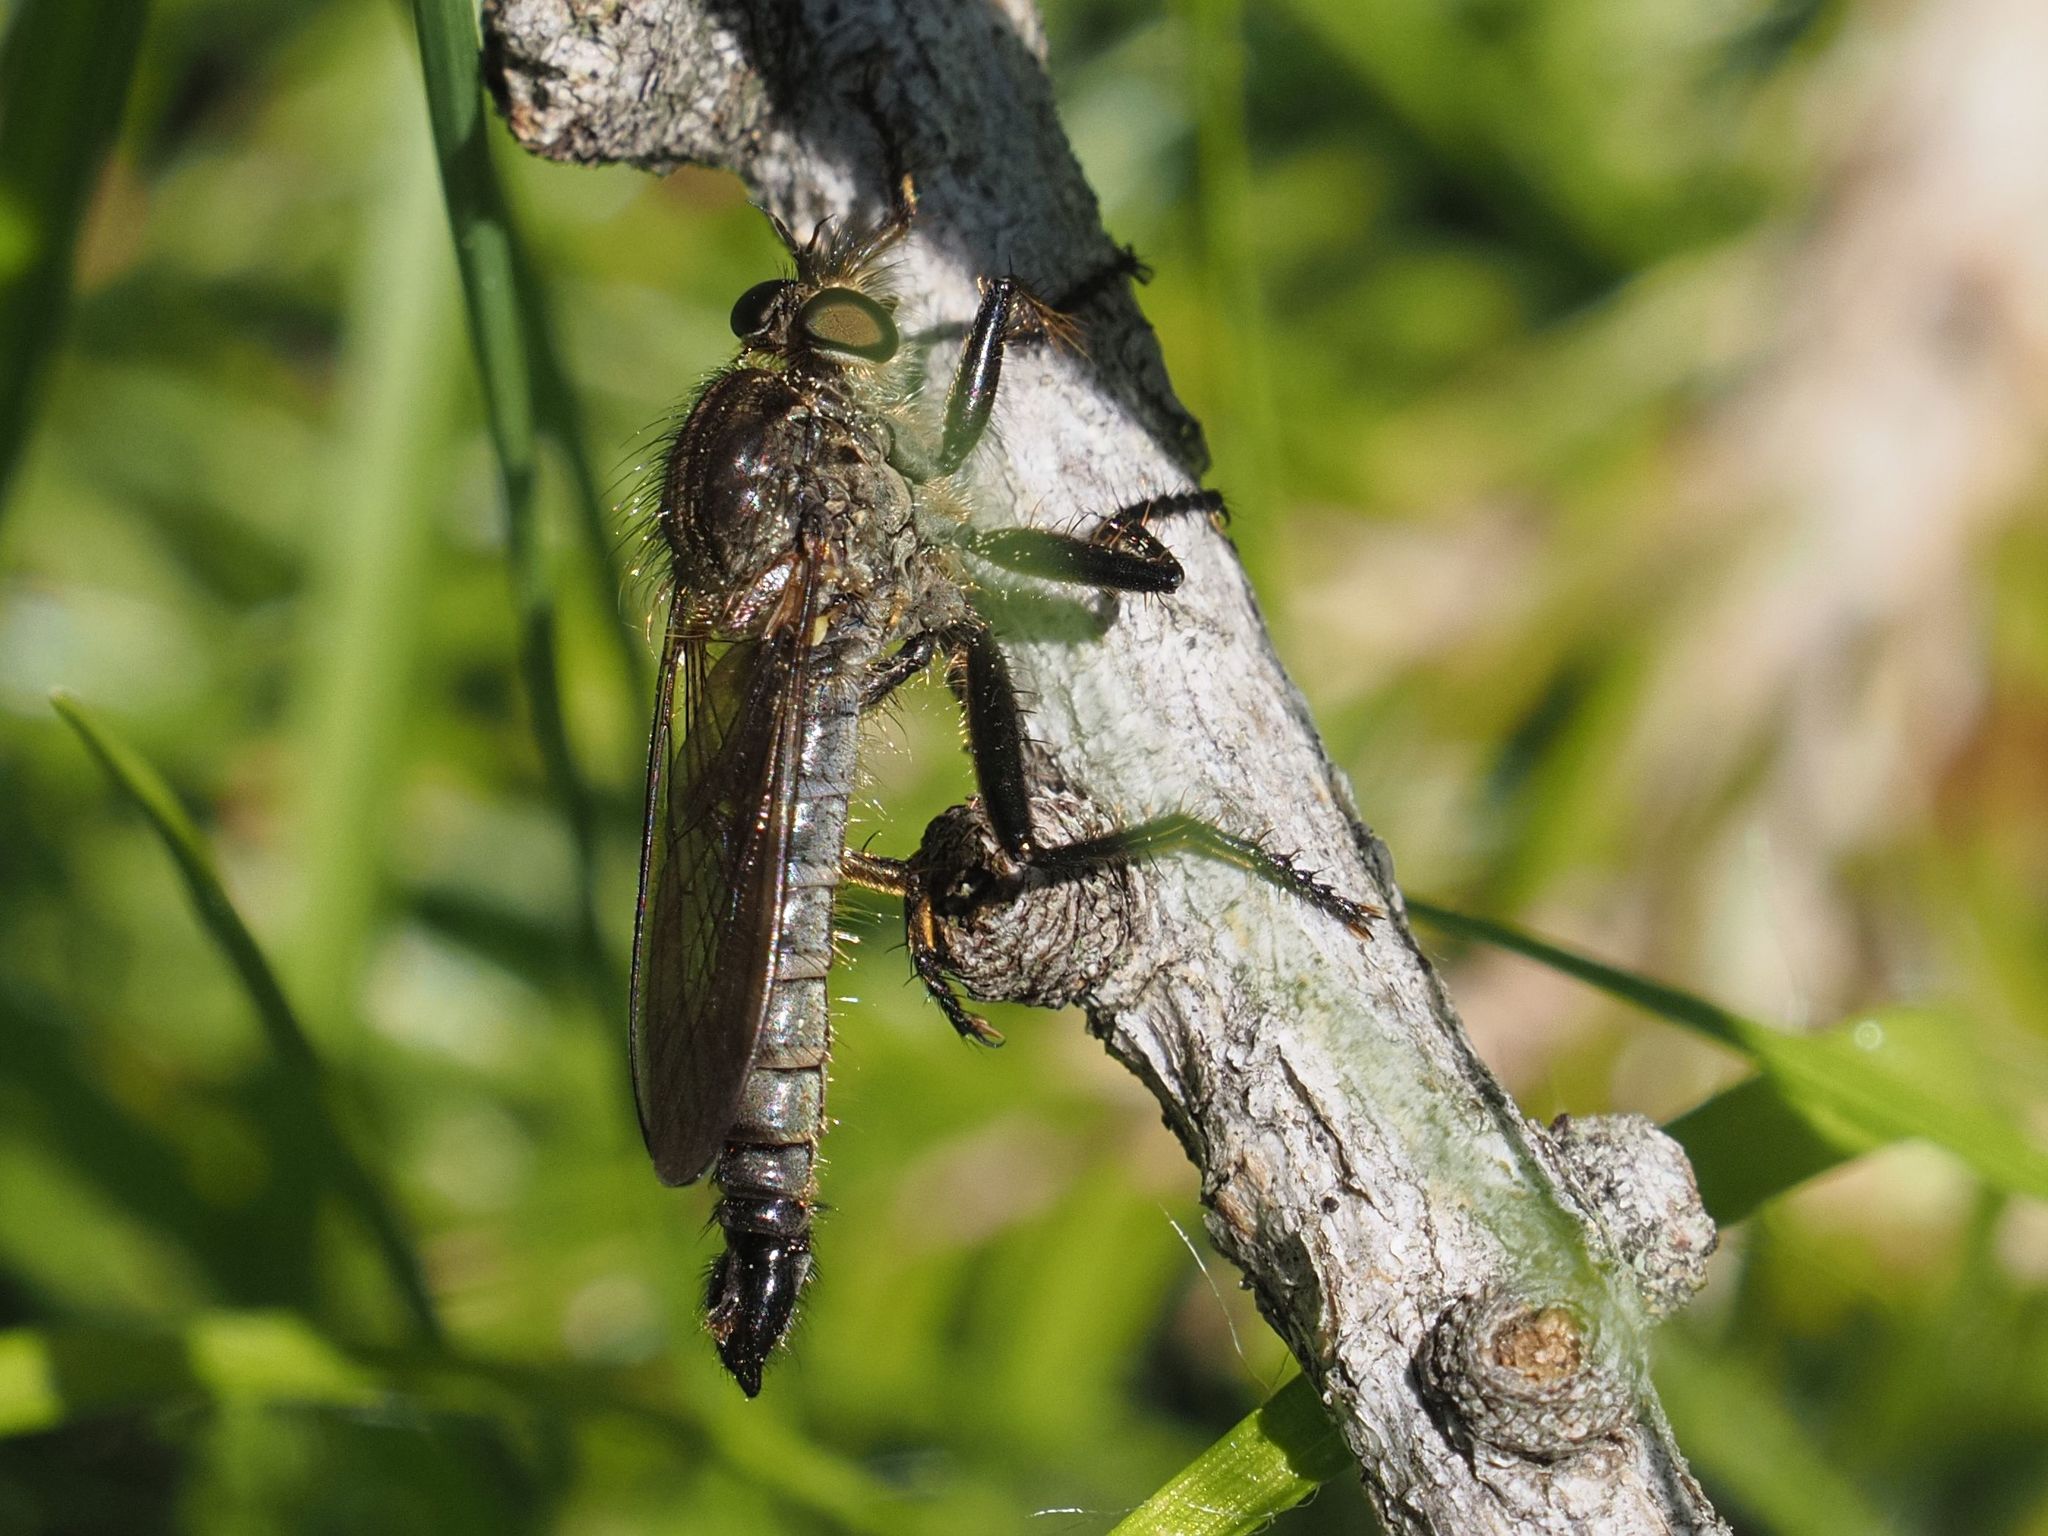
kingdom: Animalia
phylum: Arthropoda
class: Insecta
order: Diptera
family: Asilidae
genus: Didysmachus
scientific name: Didysmachus picipes
